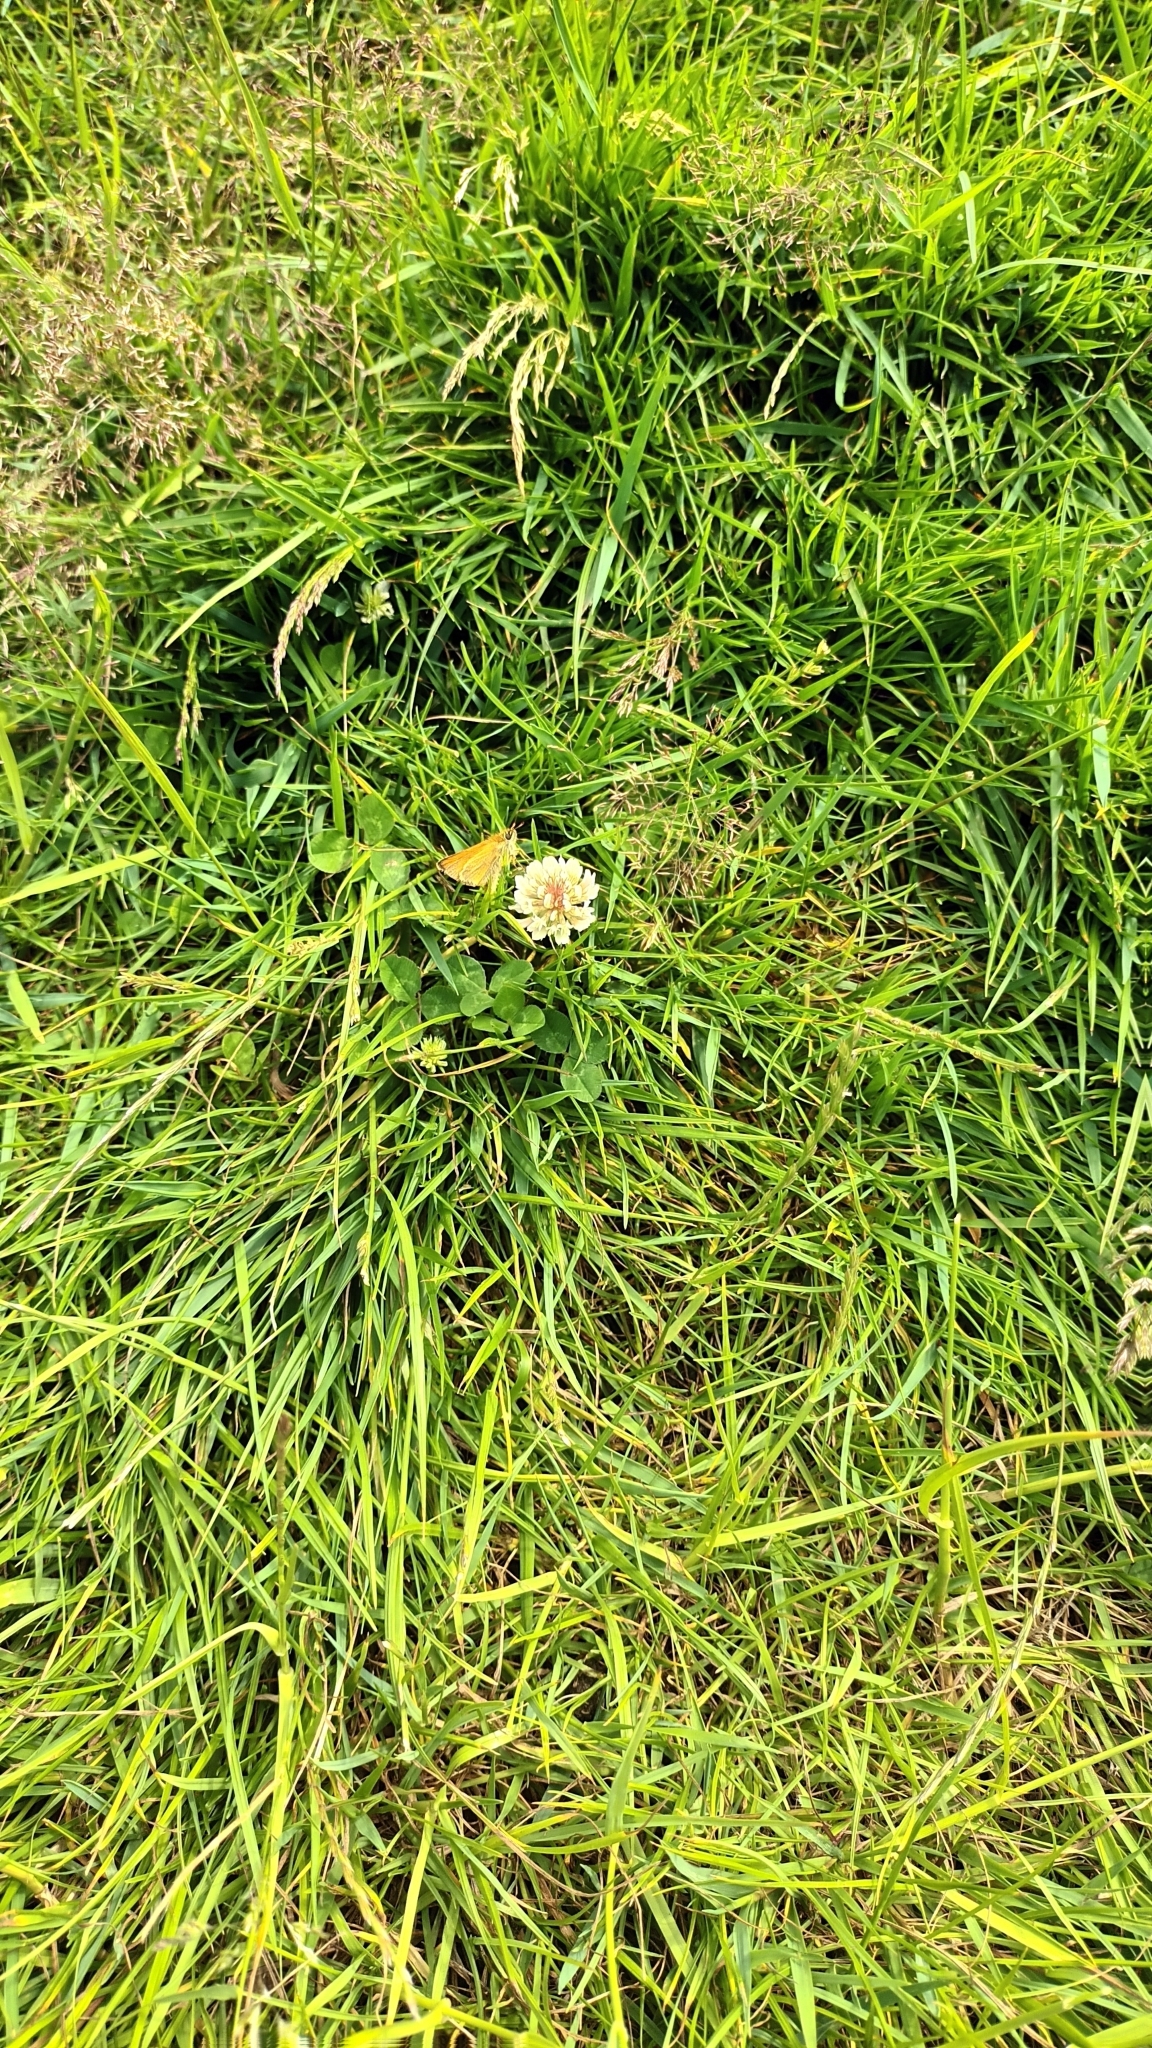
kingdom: Animalia
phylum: Arthropoda
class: Insecta
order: Lepidoptera
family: Hesperiidae
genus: Thymelicus
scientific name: Thymelicus sylvestris
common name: Small skipper
